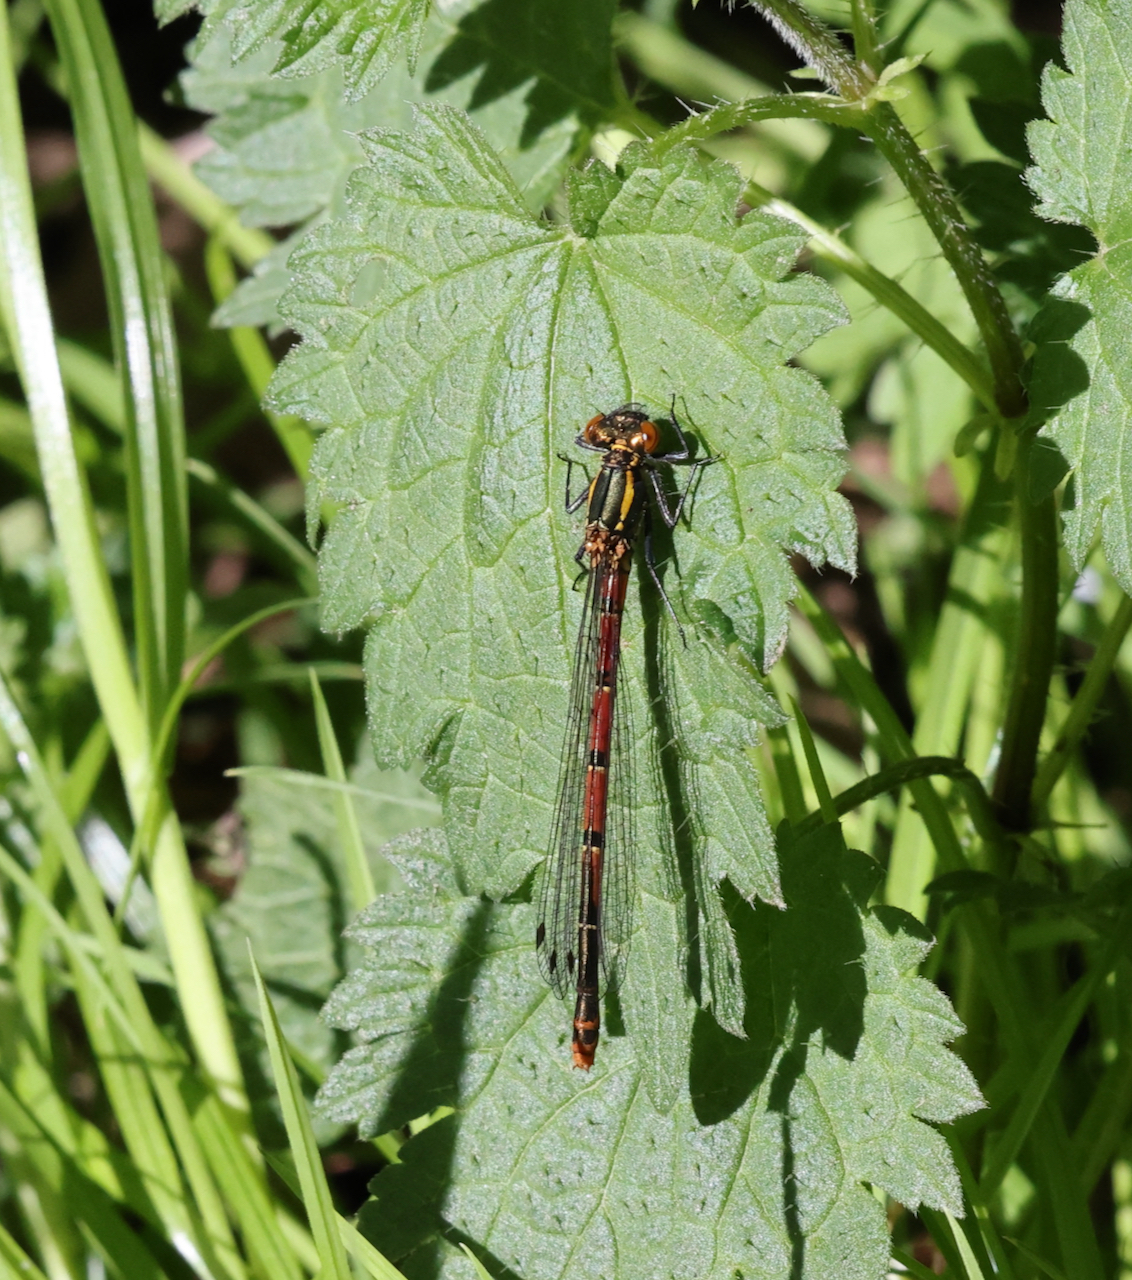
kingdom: Animalia
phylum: Arthropoda
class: Insecta
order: Odonata
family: Coenagrionidae
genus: Pyrrhosoma
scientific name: Pyrrhosoma nymphula
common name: Large red damsel
